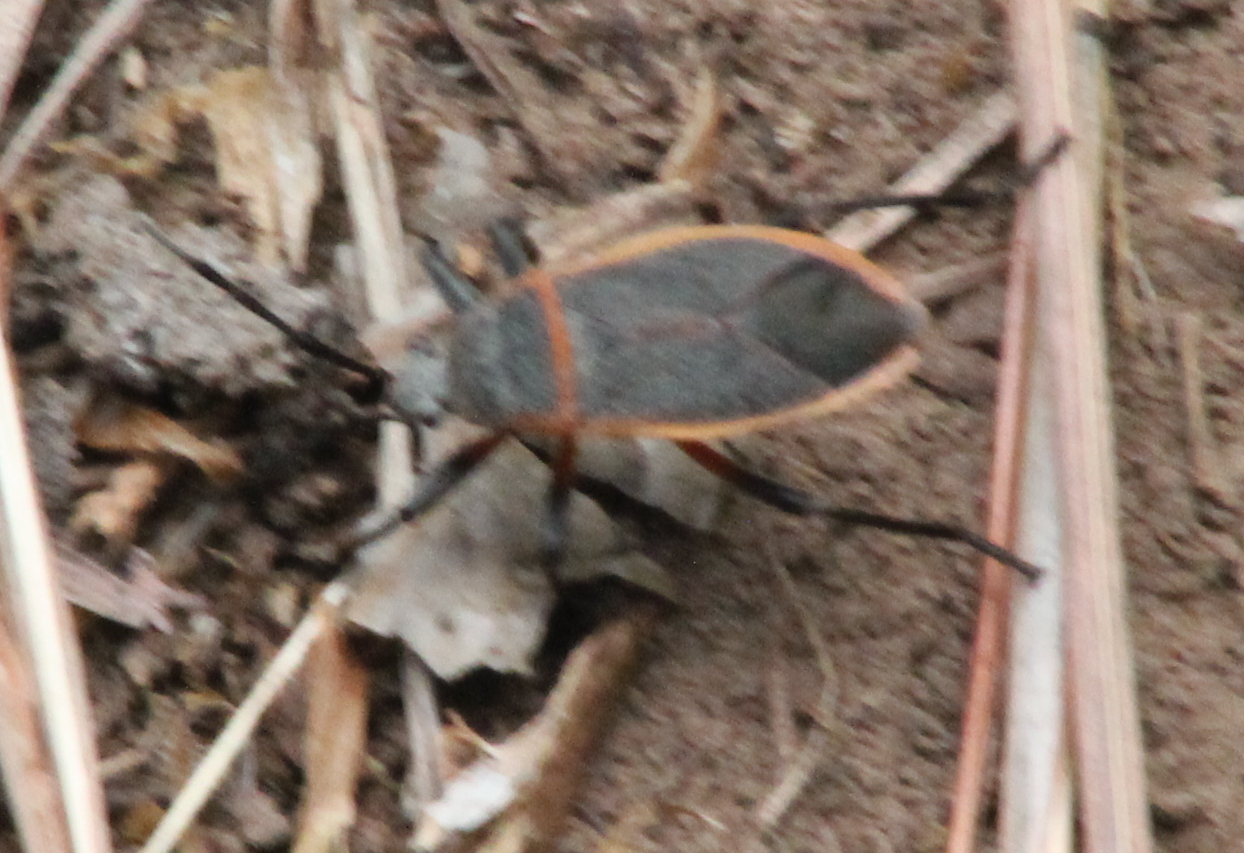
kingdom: Animalia
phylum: Arthropoda
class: Insecta
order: Hemiptera
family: Largidae
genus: Largus
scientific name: Largus succinctus
